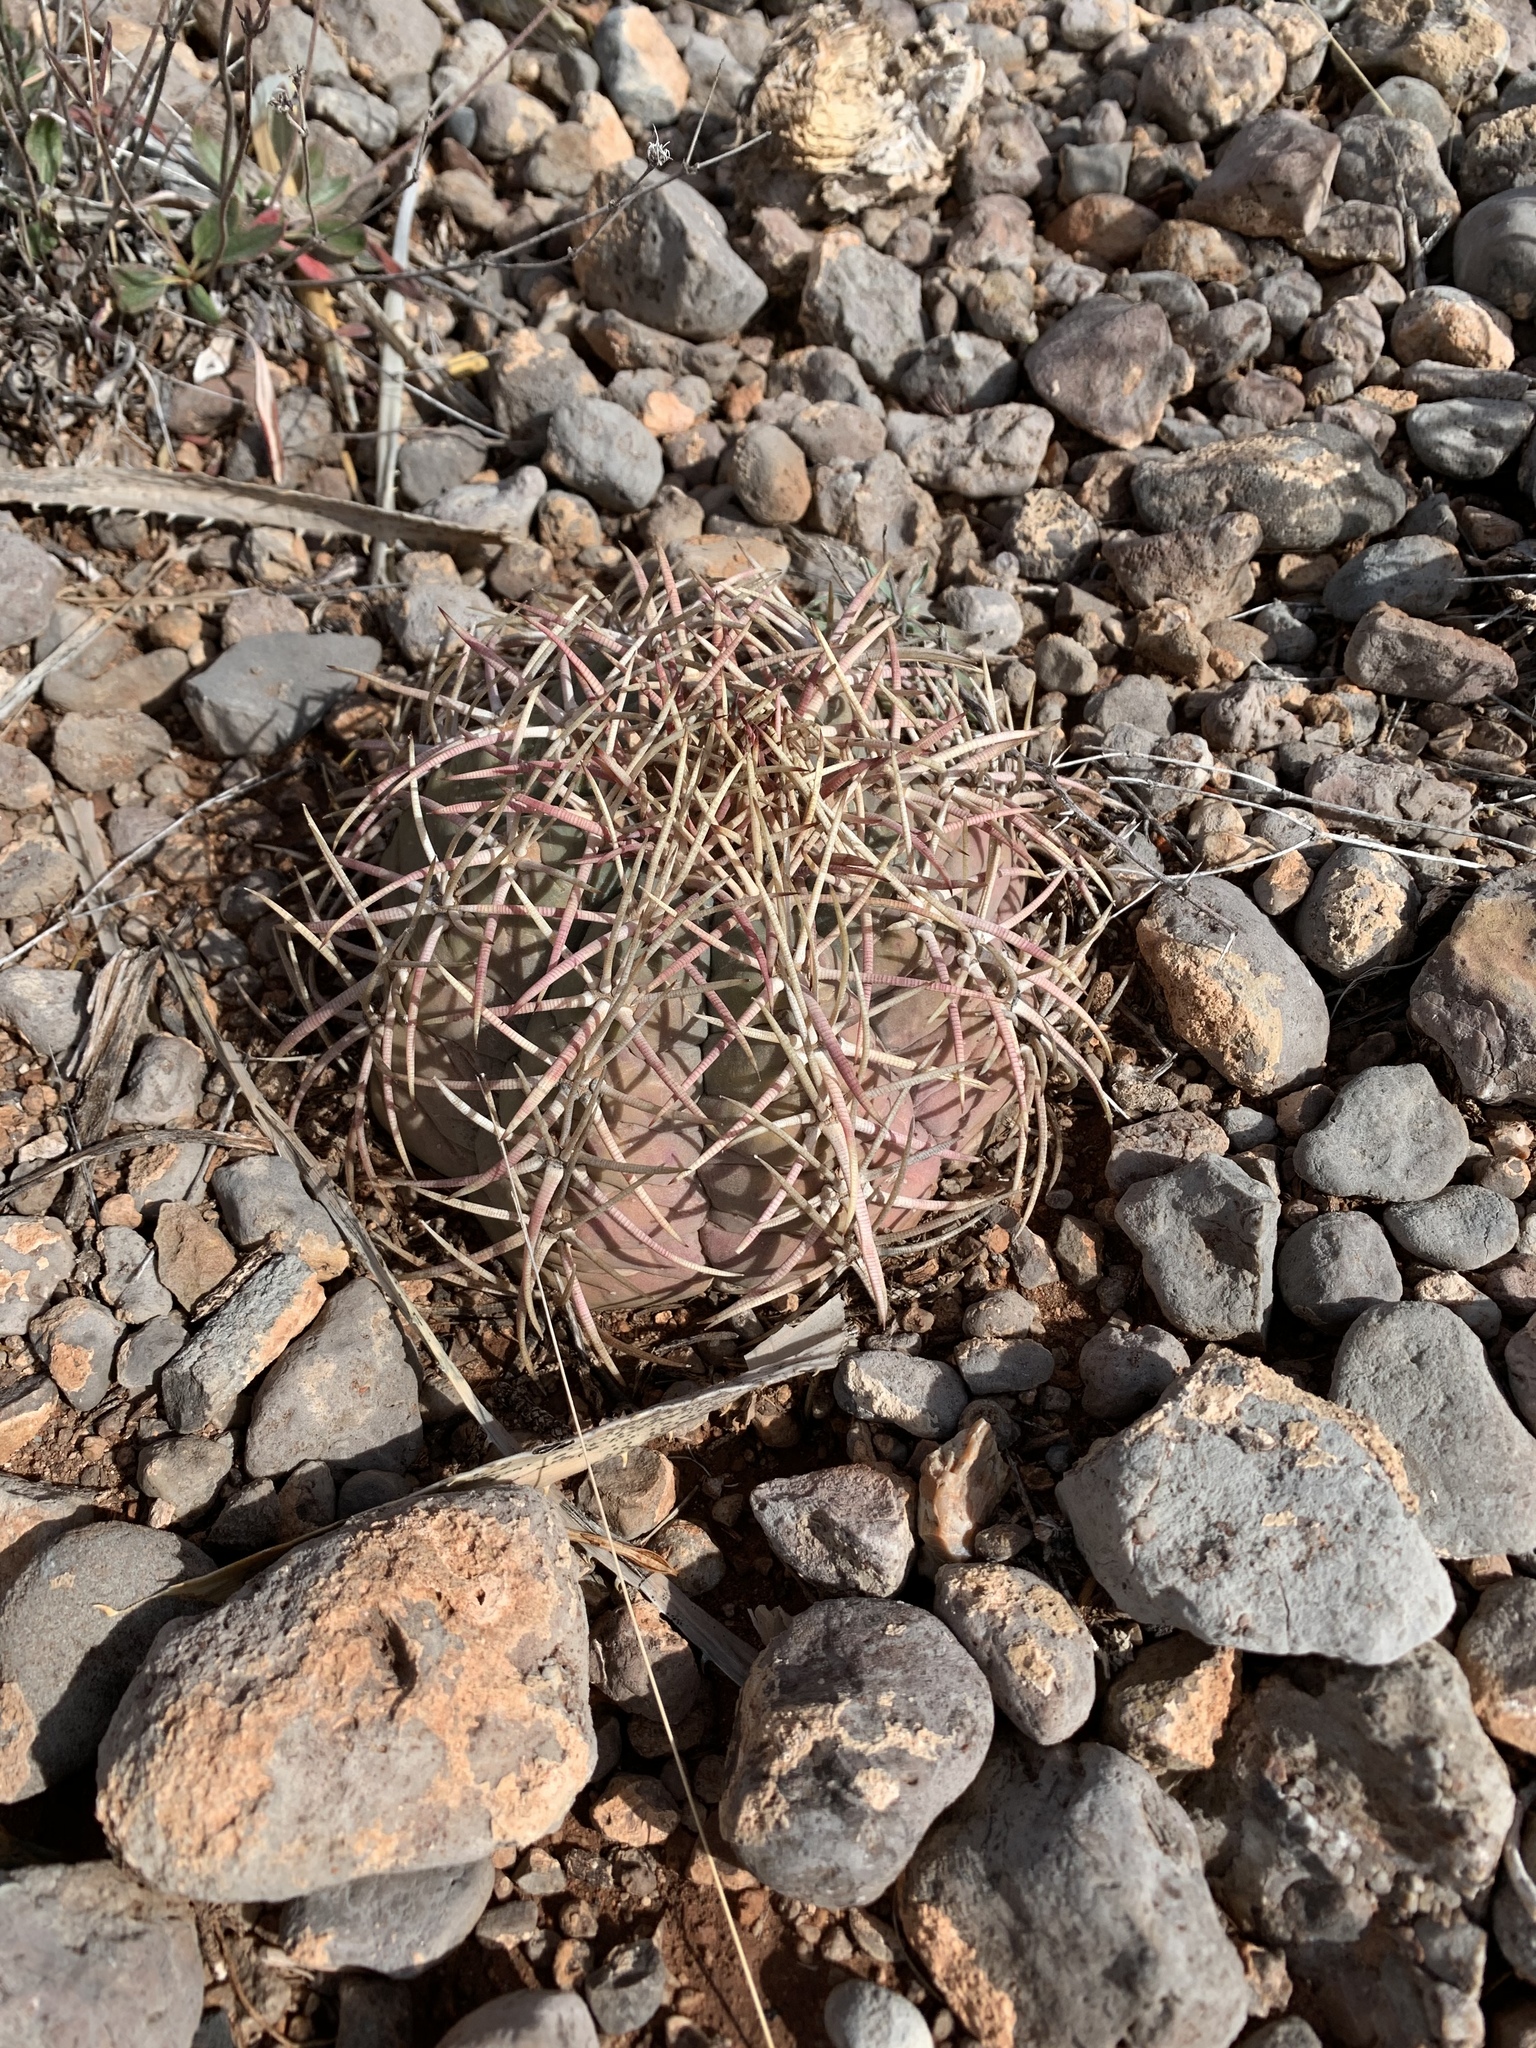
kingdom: Plantae
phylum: Tracheophyta
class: Magnoliopsida
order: Caryophyllales
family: Cactaceae
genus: Echinocactus
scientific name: Echinocactus horizonthalonius
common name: Devilshead
